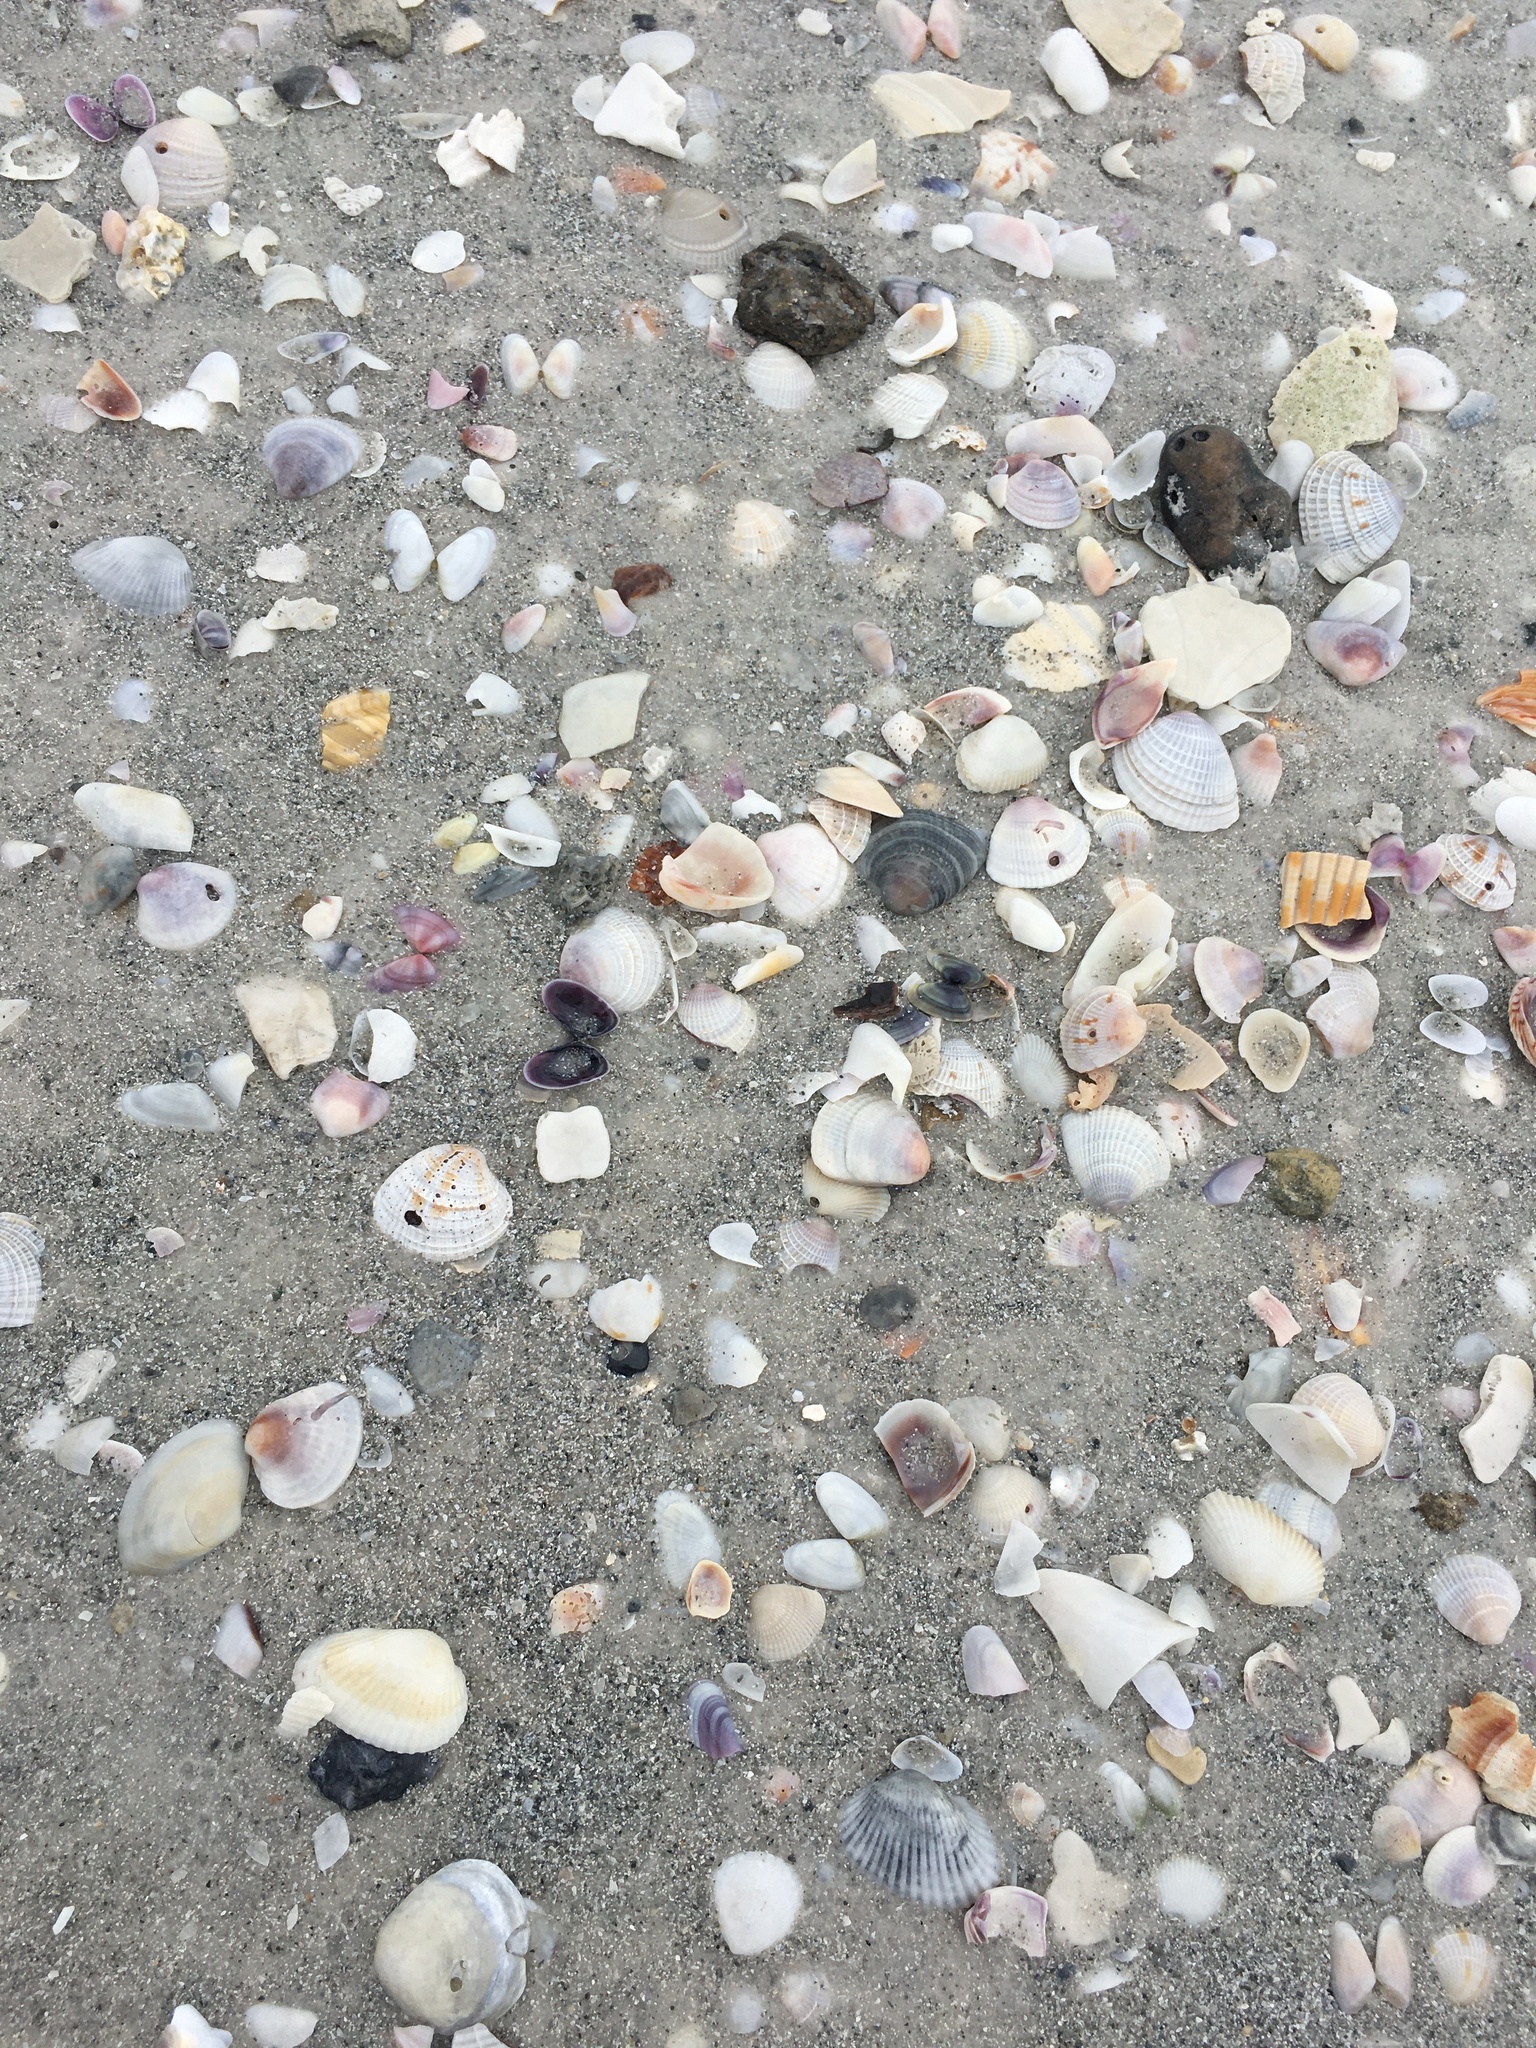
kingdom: Animalia
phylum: Mollusca
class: Bivalvia
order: Cardiida
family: Donacidae
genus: Donax
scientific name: Donax variabilis
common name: Butterfly shell
